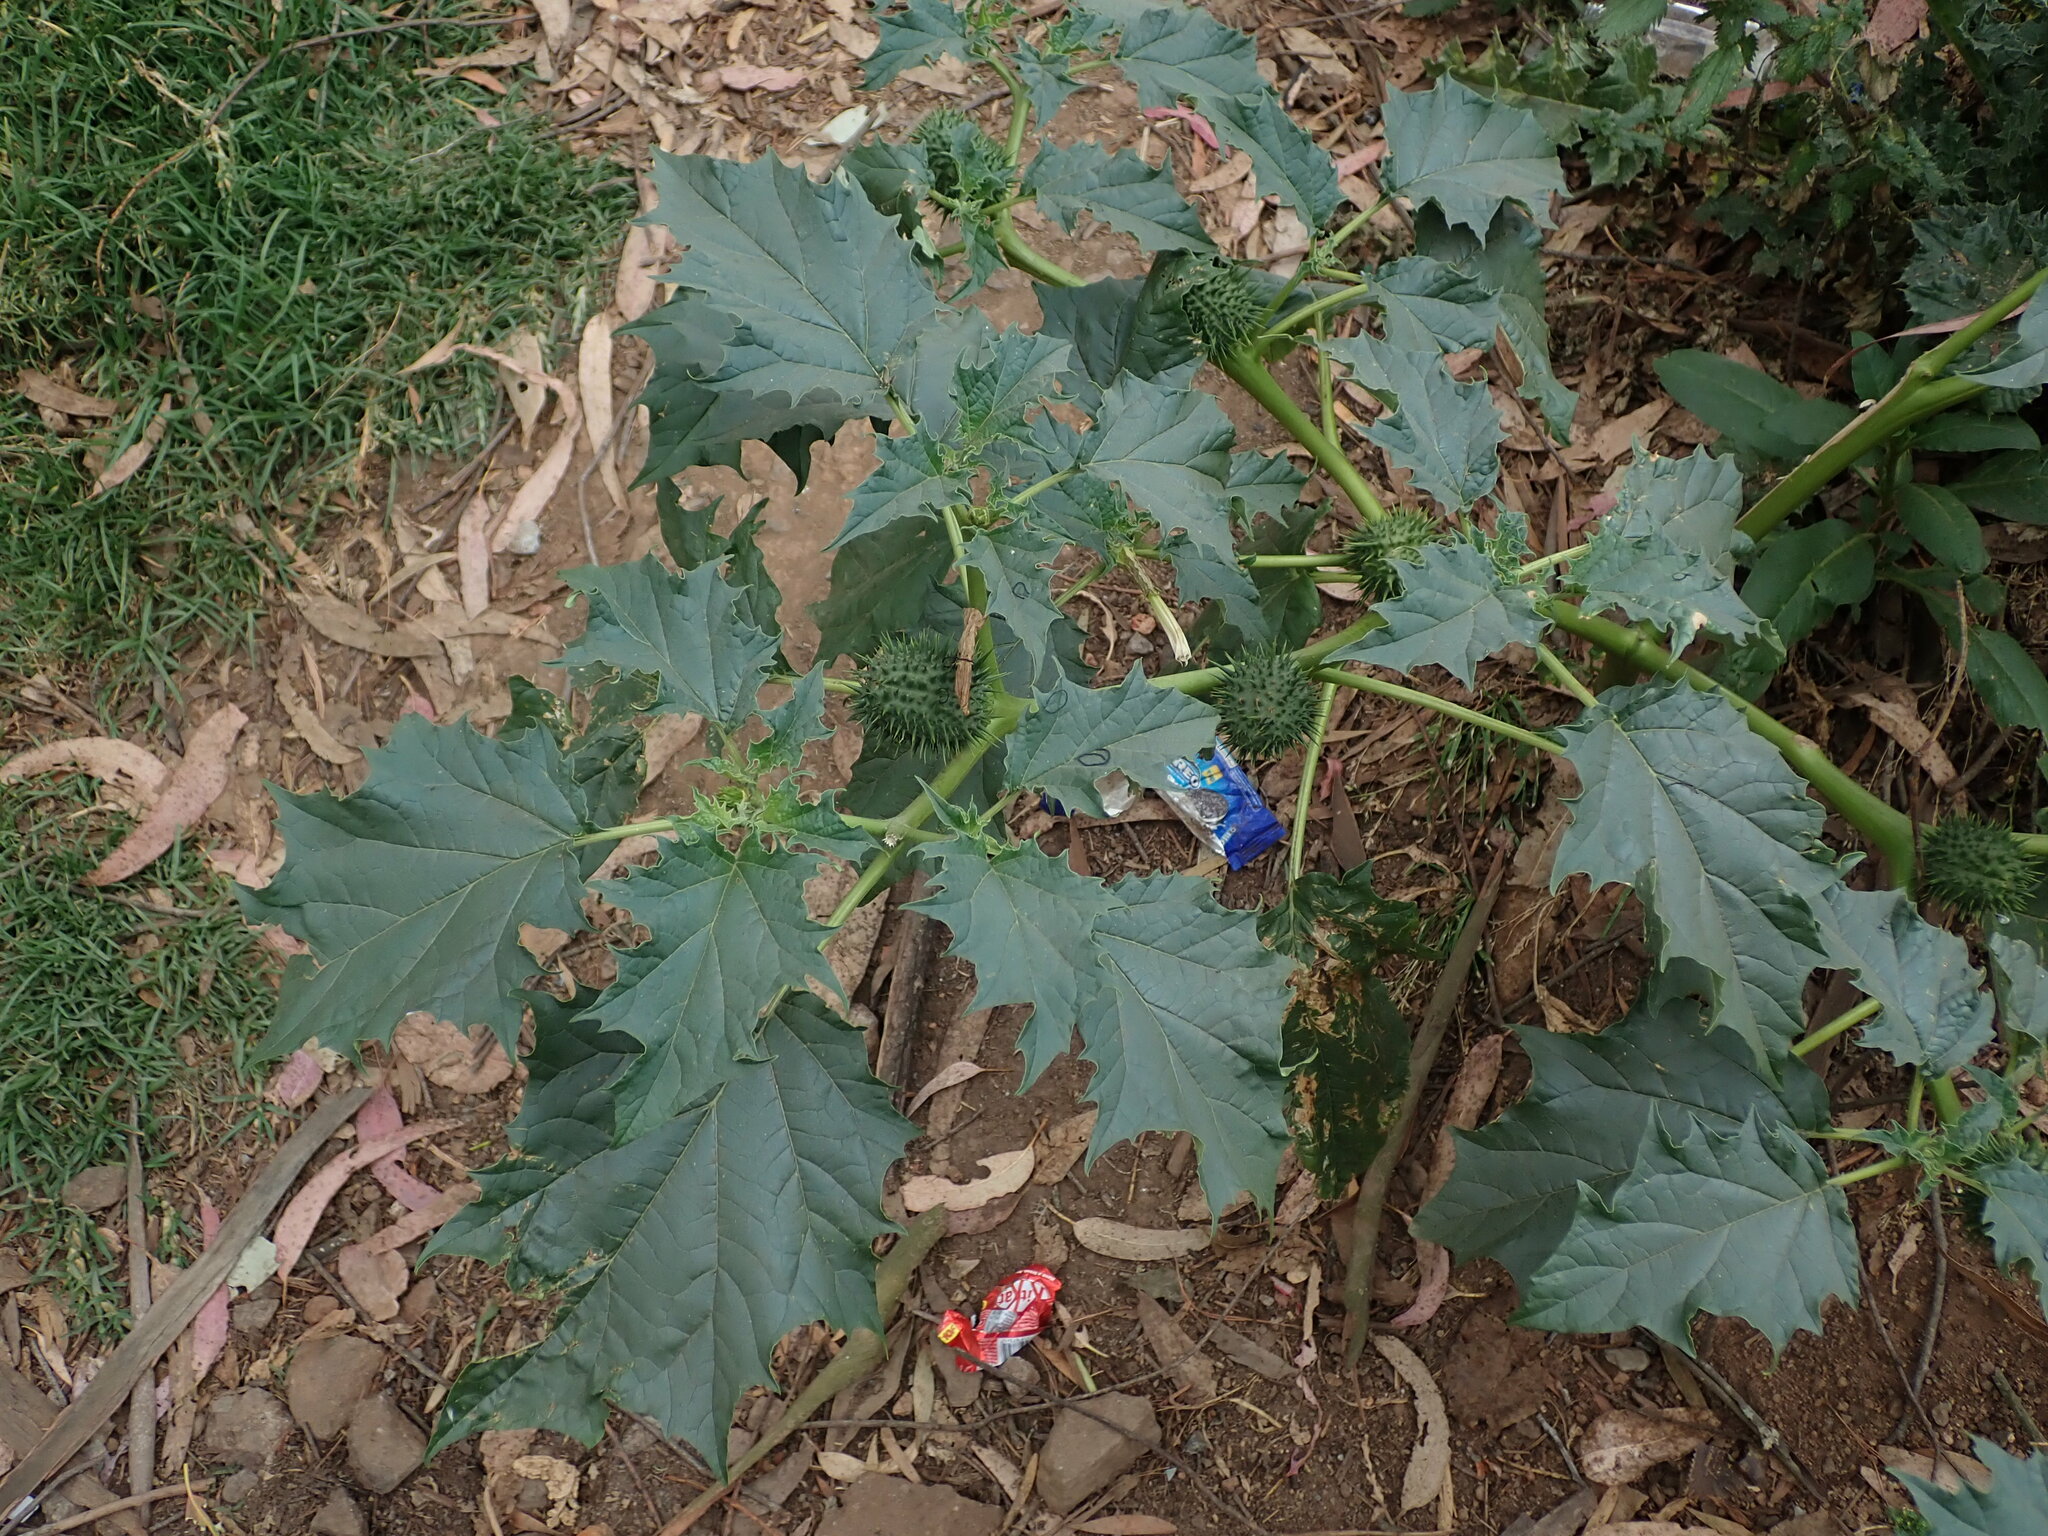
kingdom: Plantae
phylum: Tracheophyta
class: Magnoliopsida
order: Solanales
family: Solanaceae
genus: Datura
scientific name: Datura stramonium
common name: Thorn-apple
